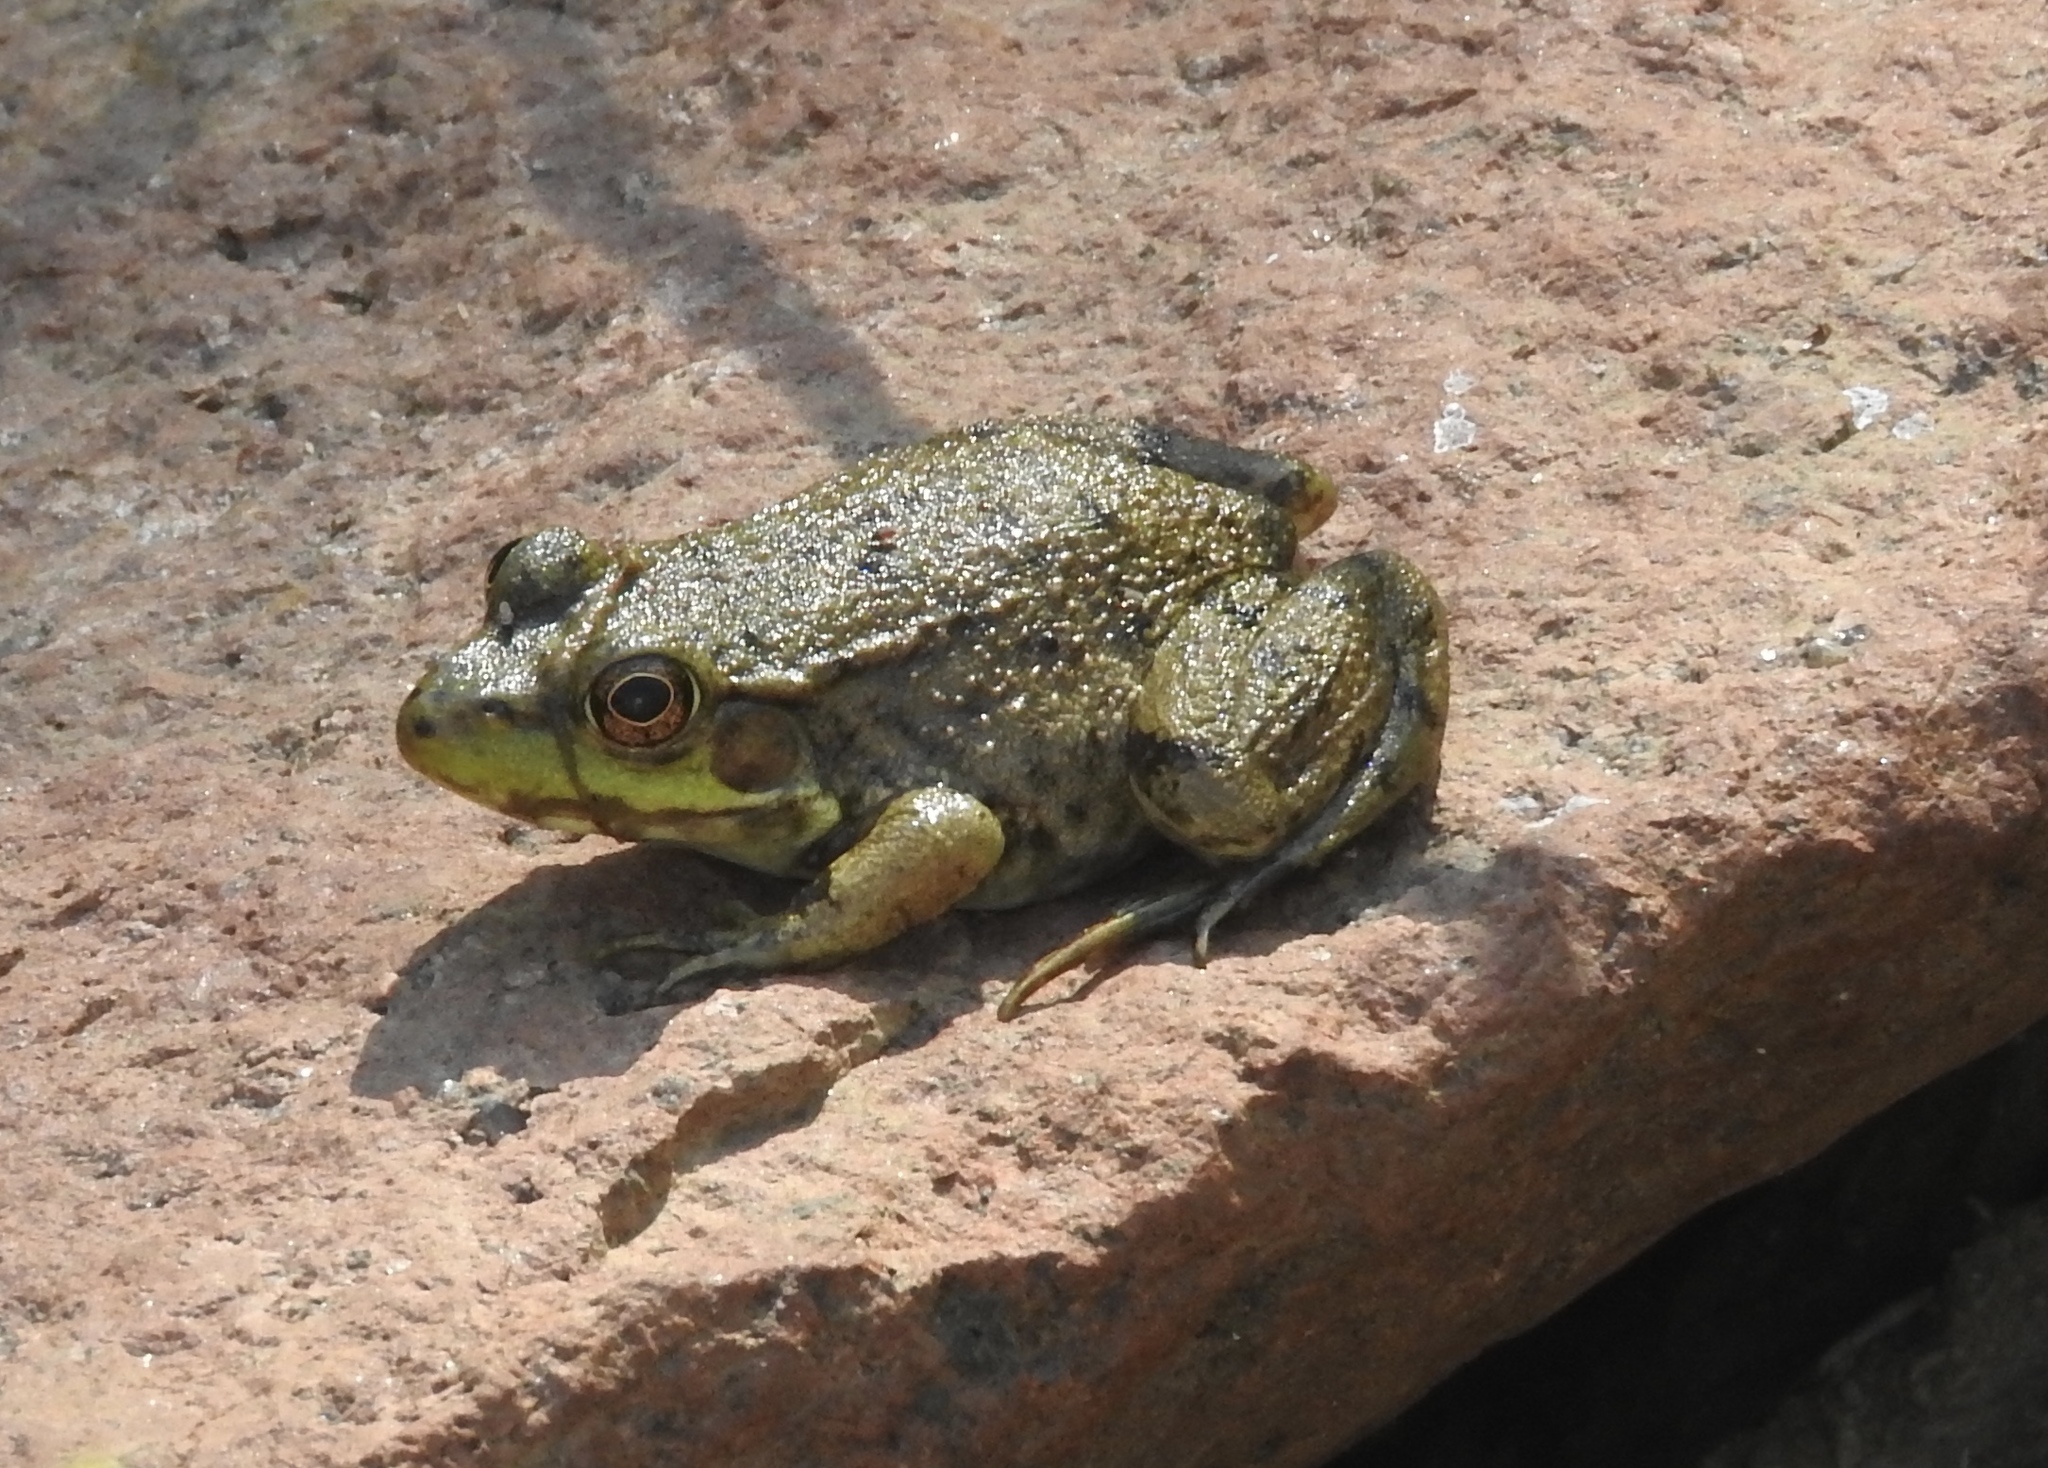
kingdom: Animalia
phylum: Chordata
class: Amphibia
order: Anura
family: Ranidae
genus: Lithobates
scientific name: Lithobates clamitans
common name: Green frog
